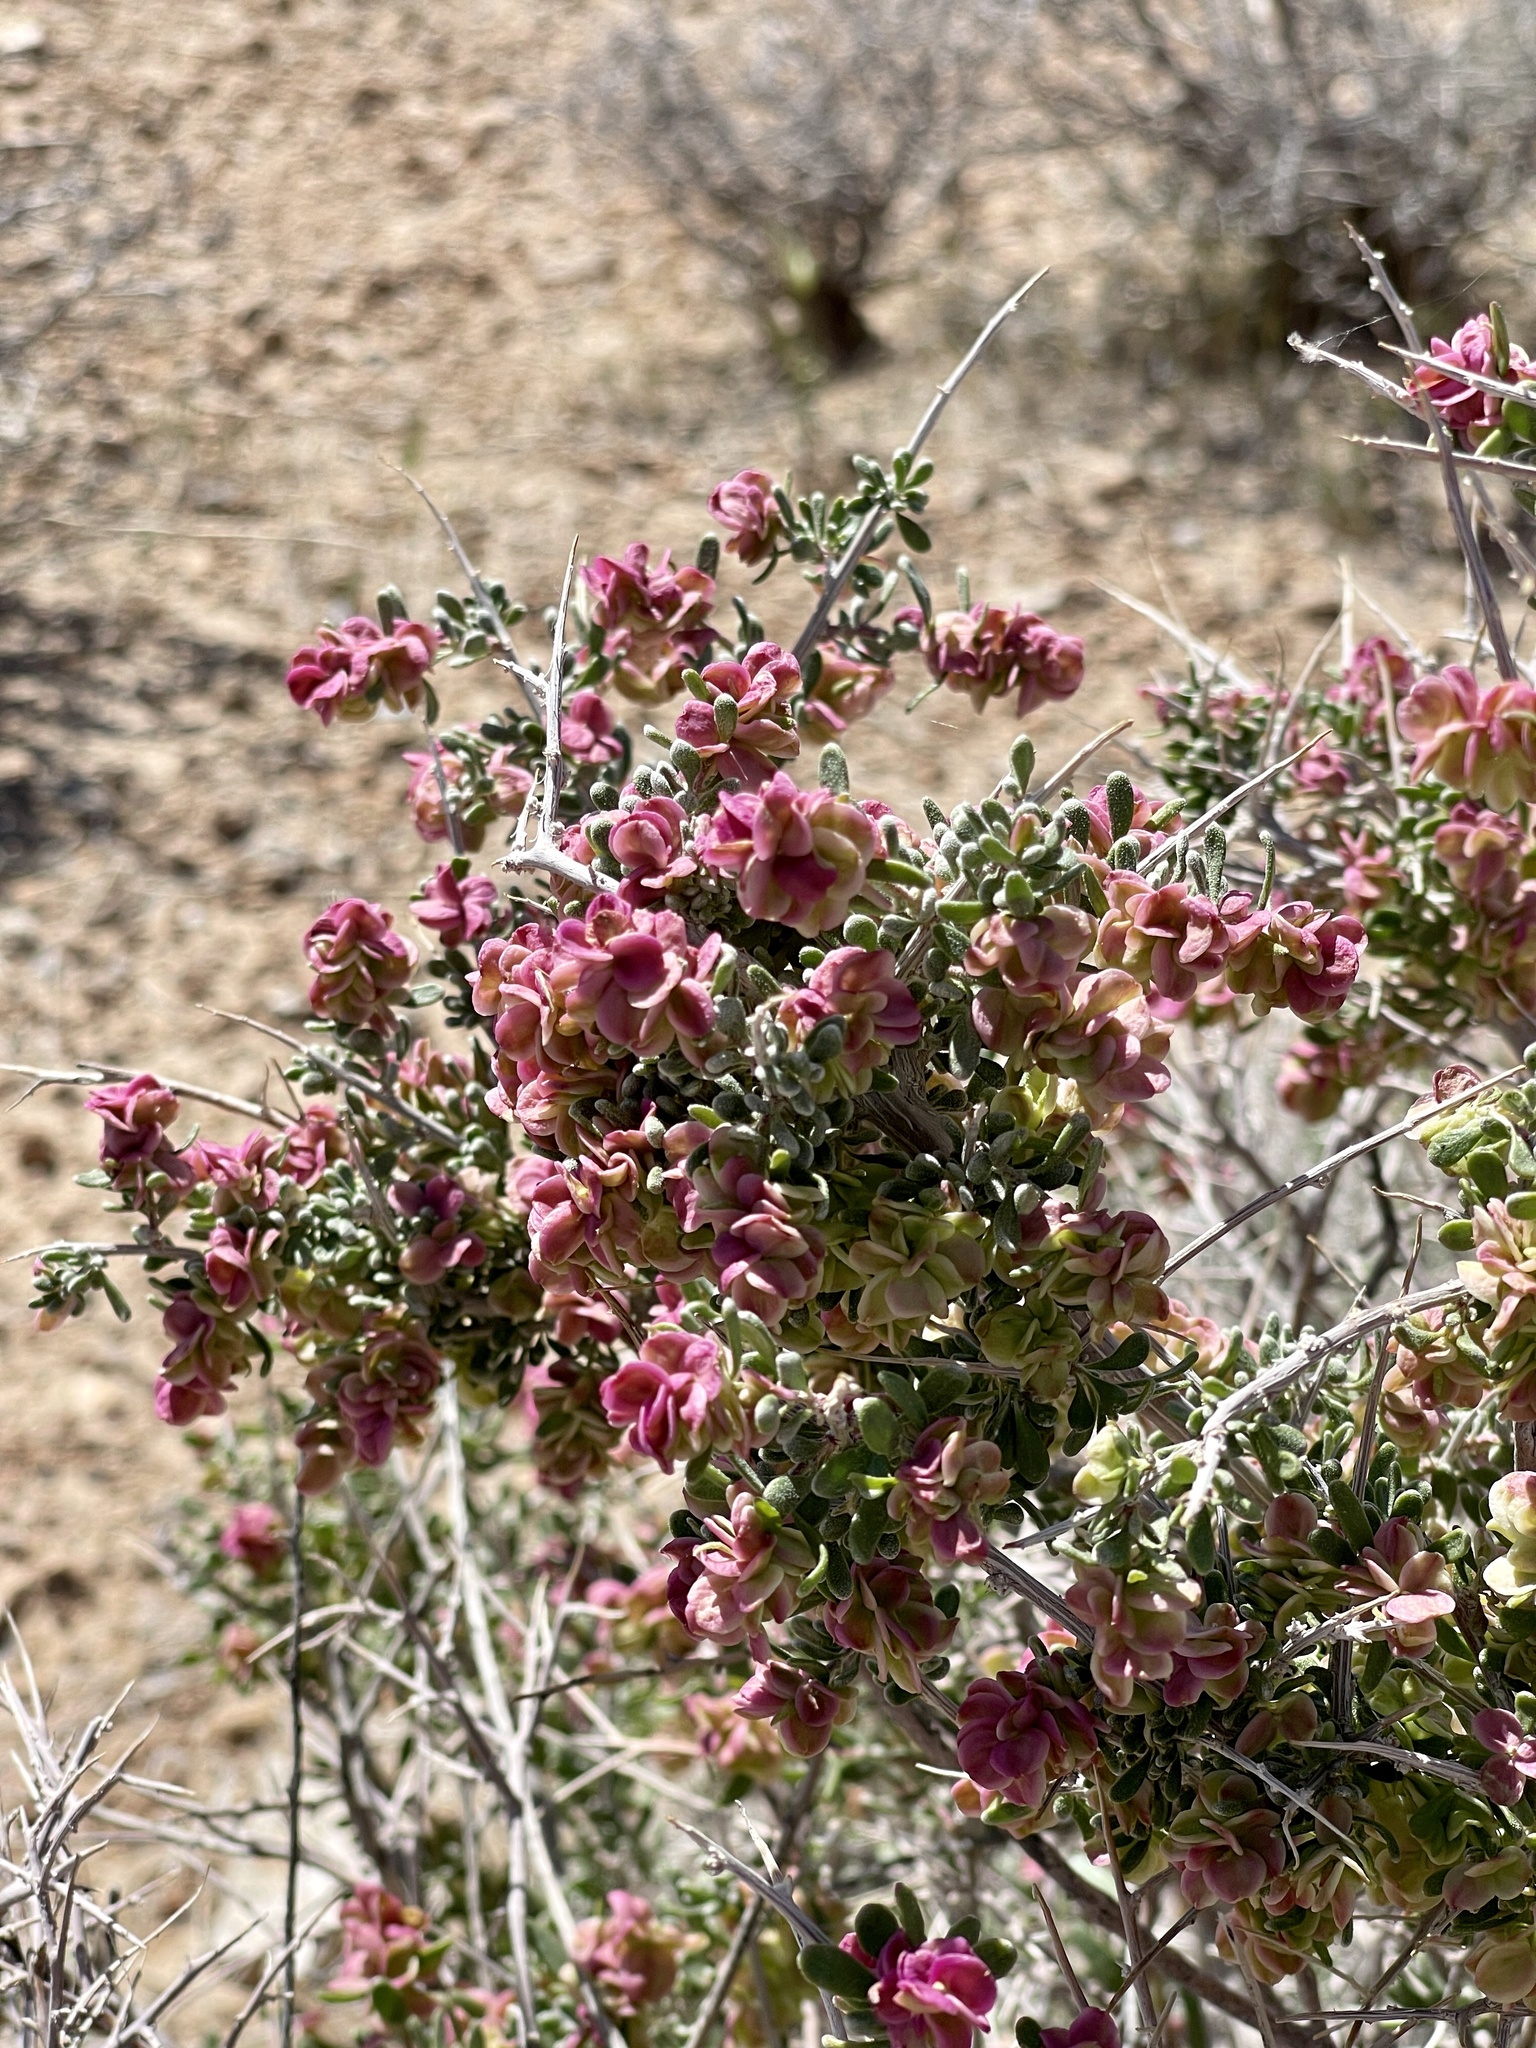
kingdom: Plantae
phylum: Tracheophyta
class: Magnoliopsida
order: Caryophyllales
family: Amaranthaceae
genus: Grayia
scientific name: Grayia spinosa
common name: Spiny hopsage
